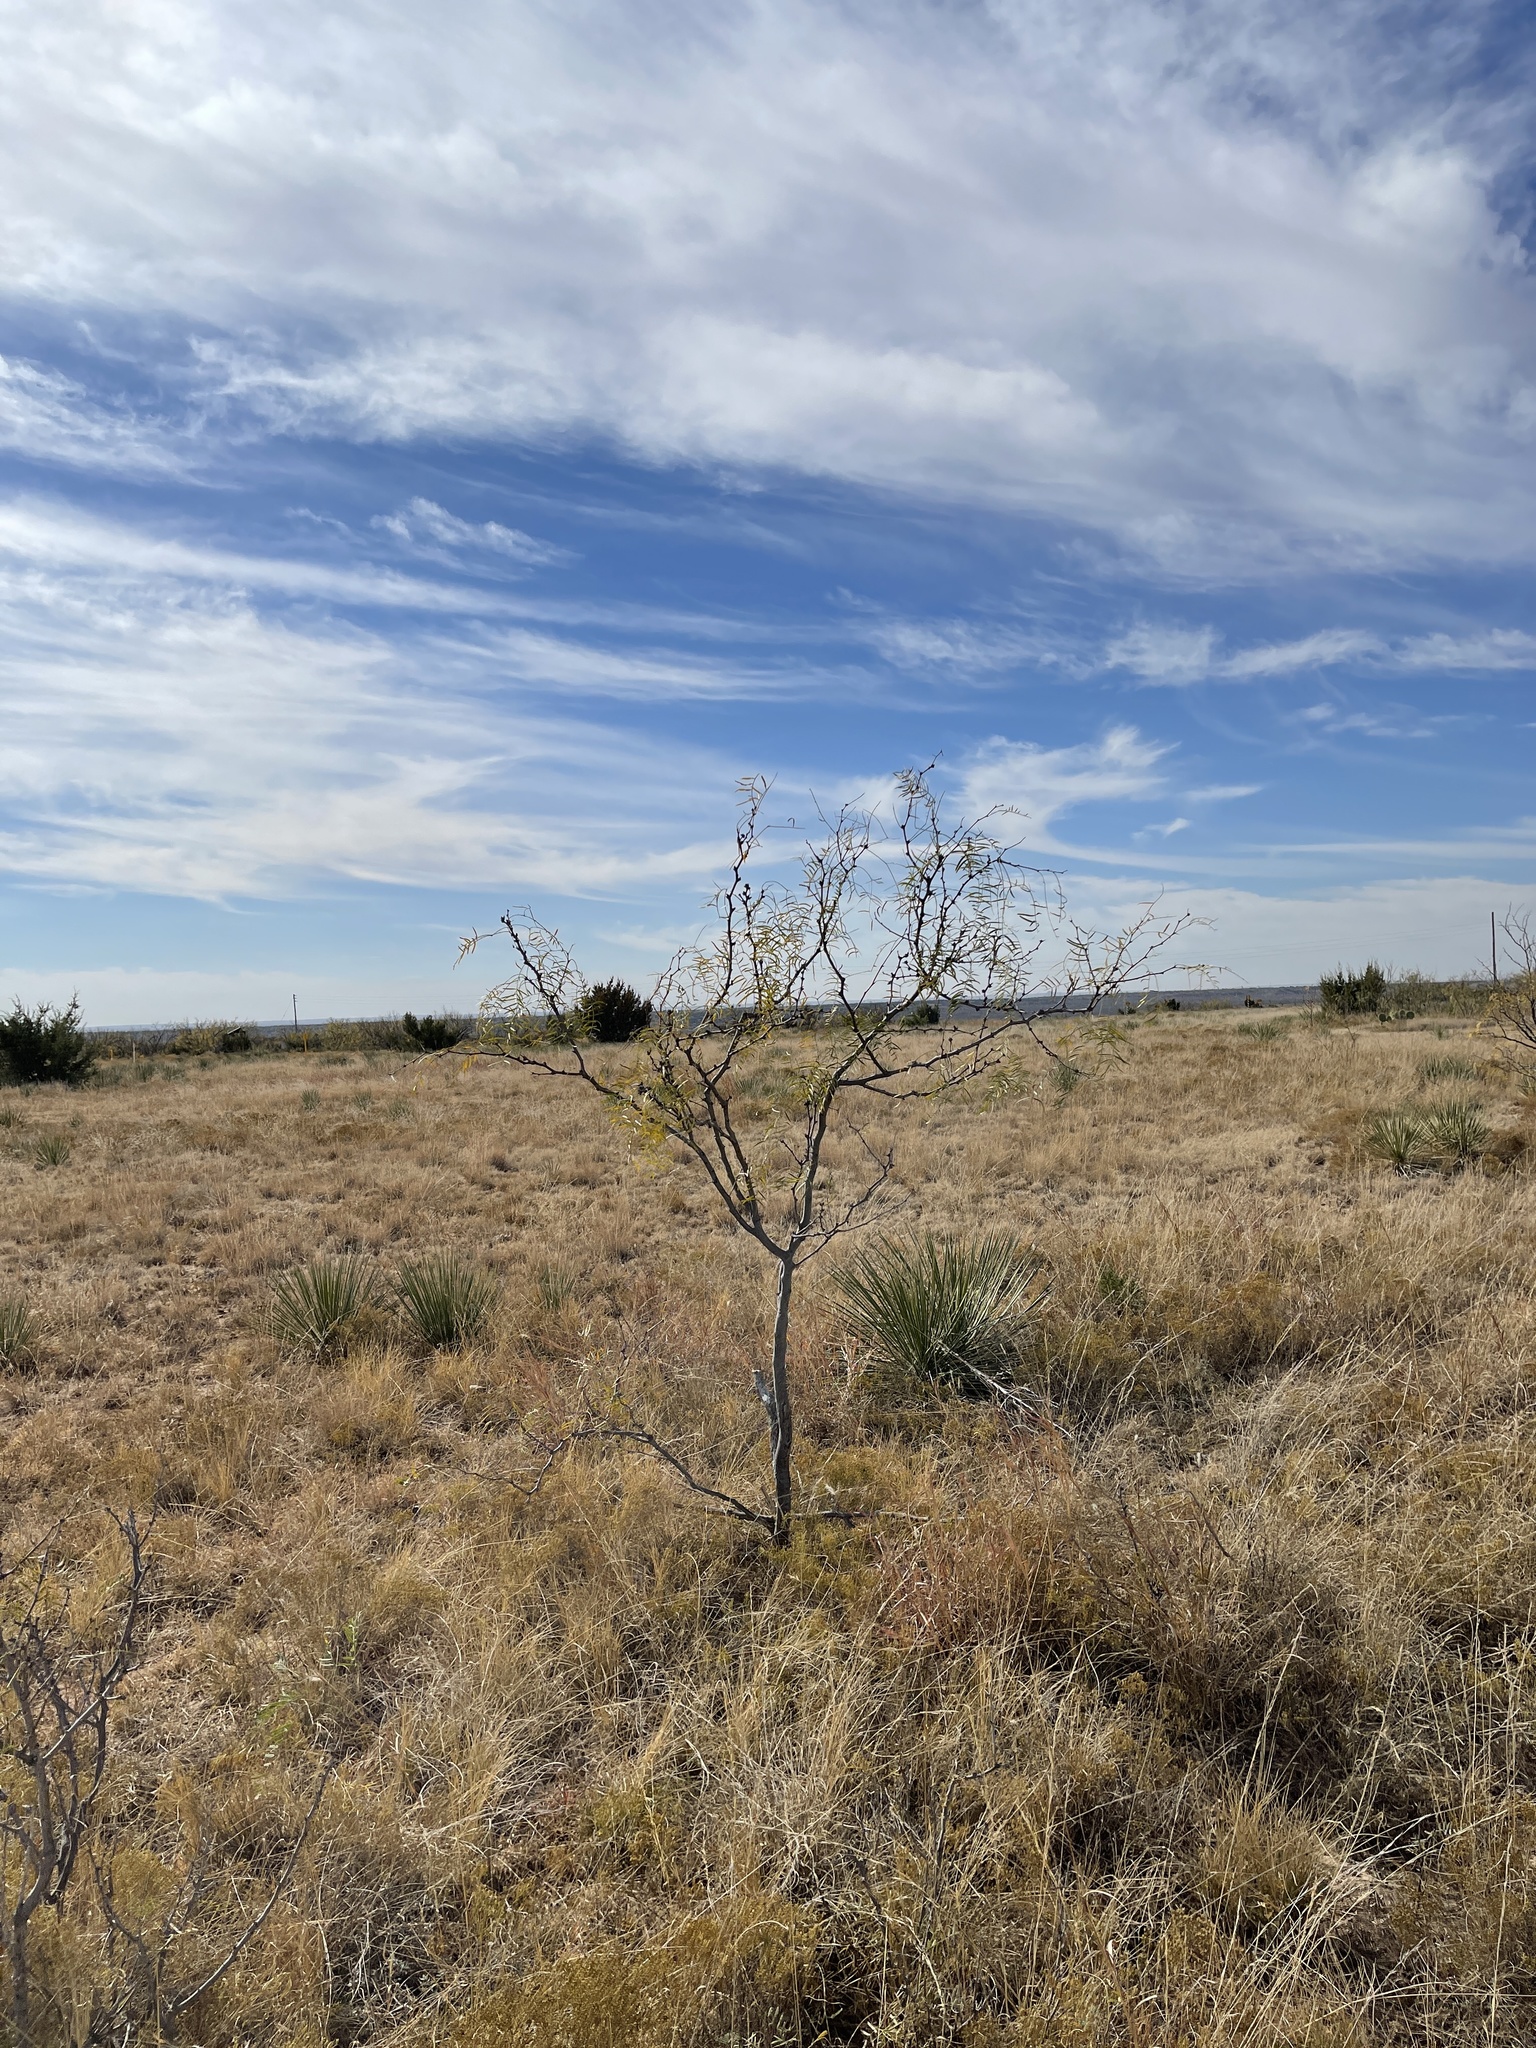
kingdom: Plantae
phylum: Tracheophyta
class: Magnoliopsida
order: Fabales
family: Fabaceae
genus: Prosopis
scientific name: Prosopis glandulosa
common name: Honey mesquite
